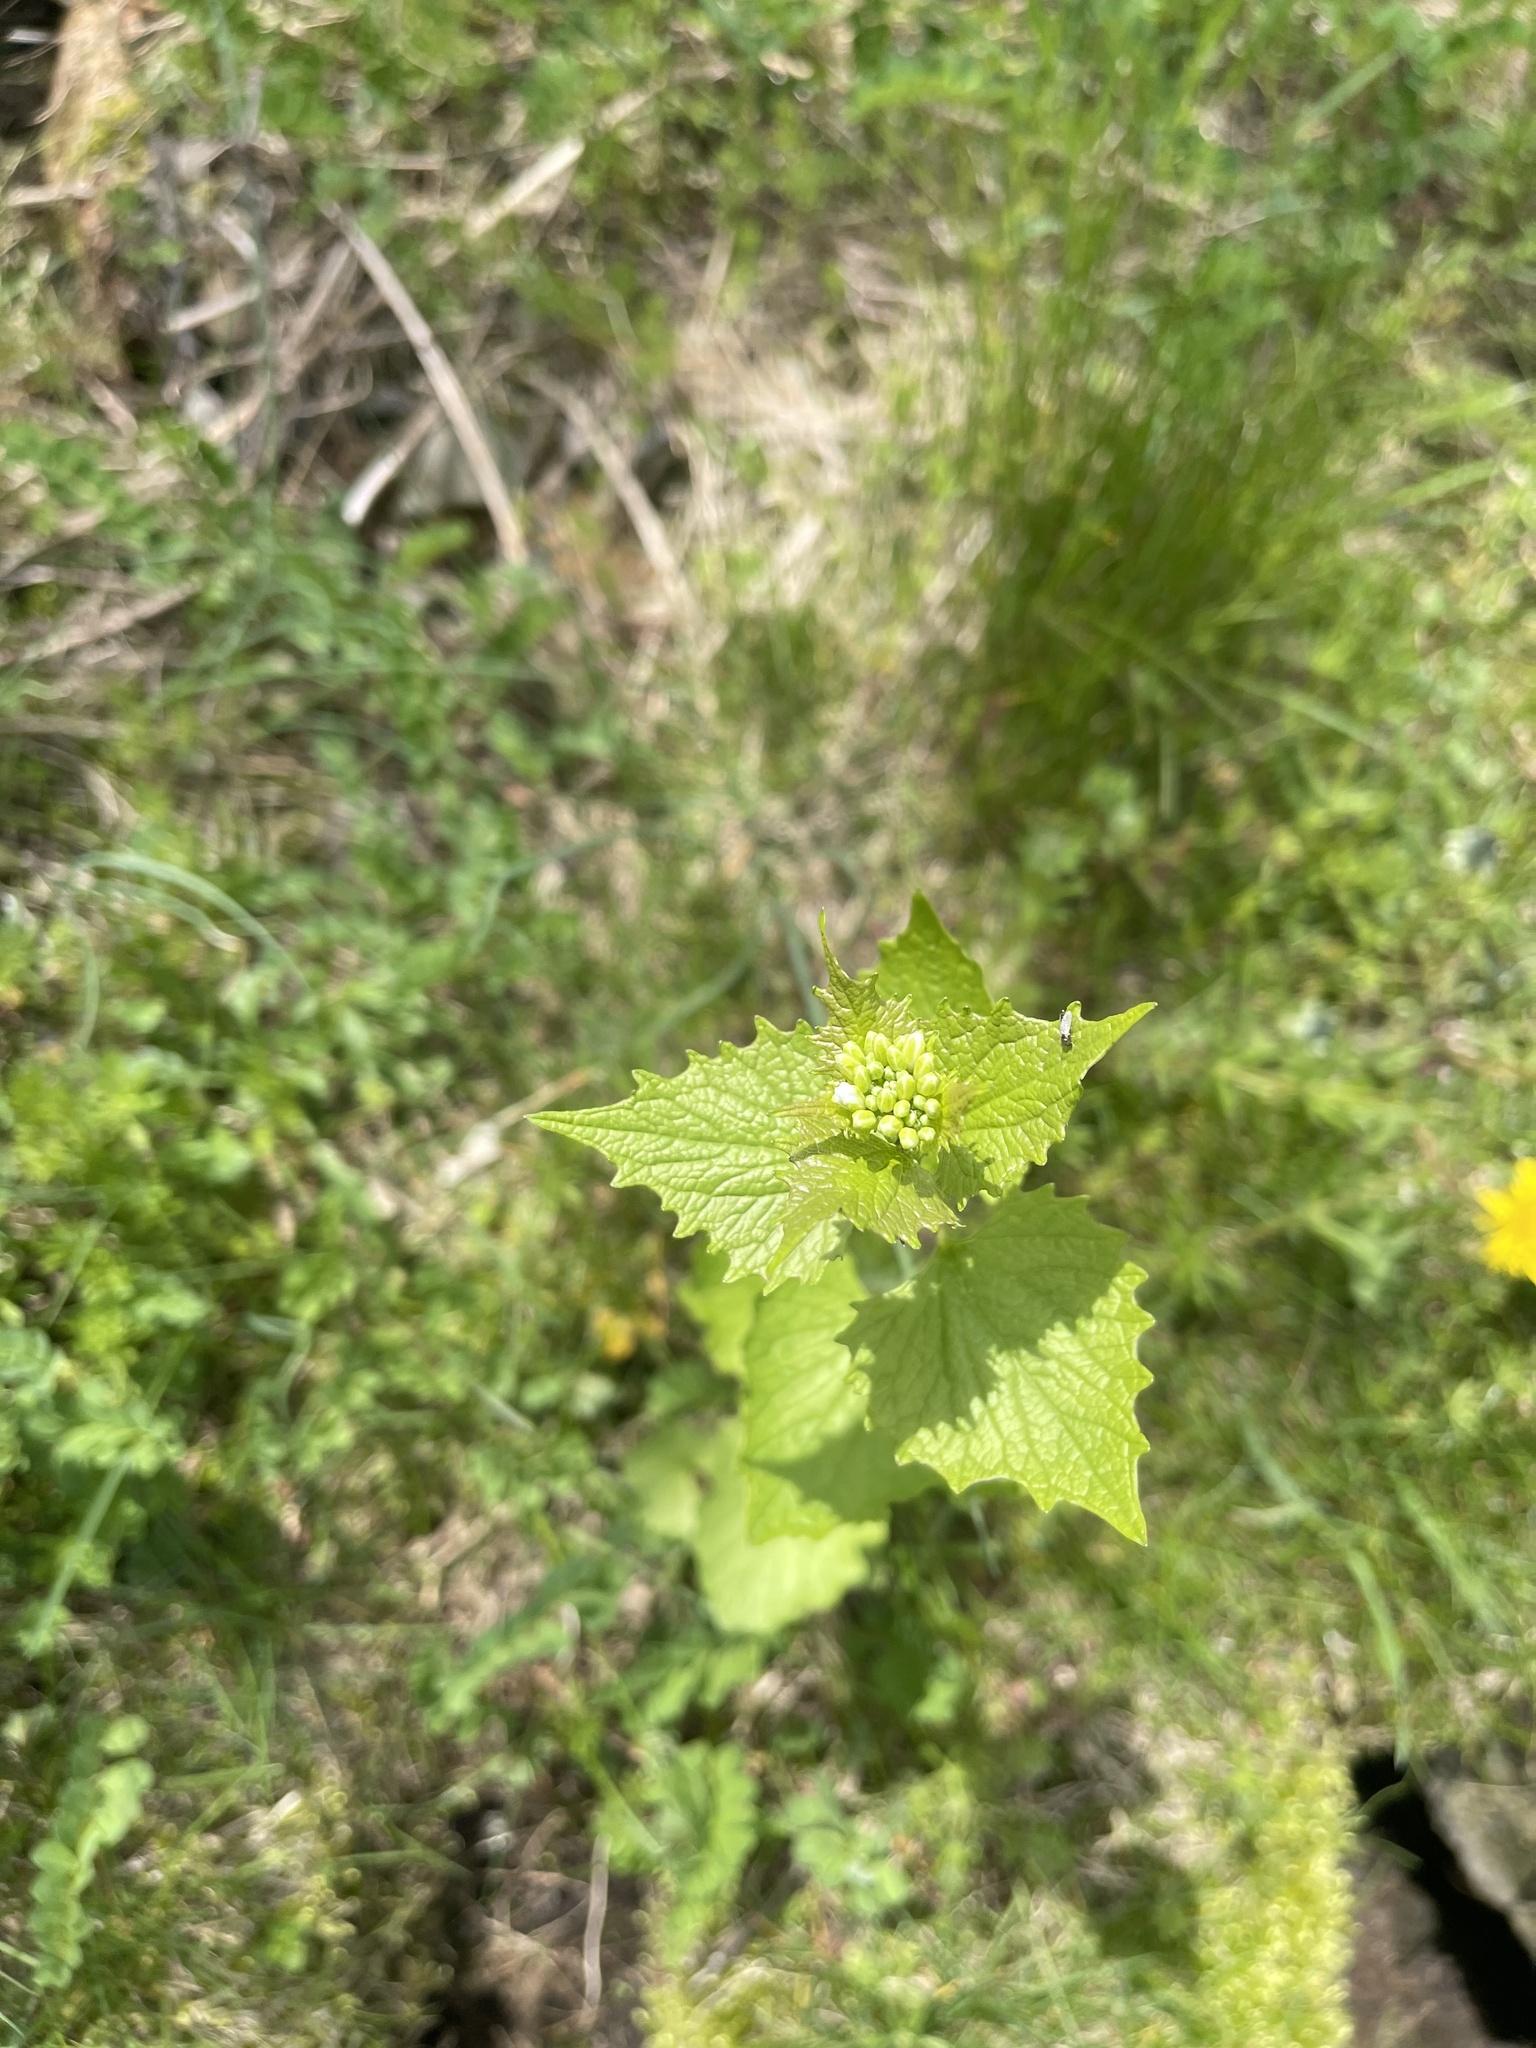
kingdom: Plantae
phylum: Tracheophyta
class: Magnoliopsida
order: Brassicales
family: Brassicaceae
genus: Alliaria
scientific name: Alliaria petiolata
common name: Garlic mustard
